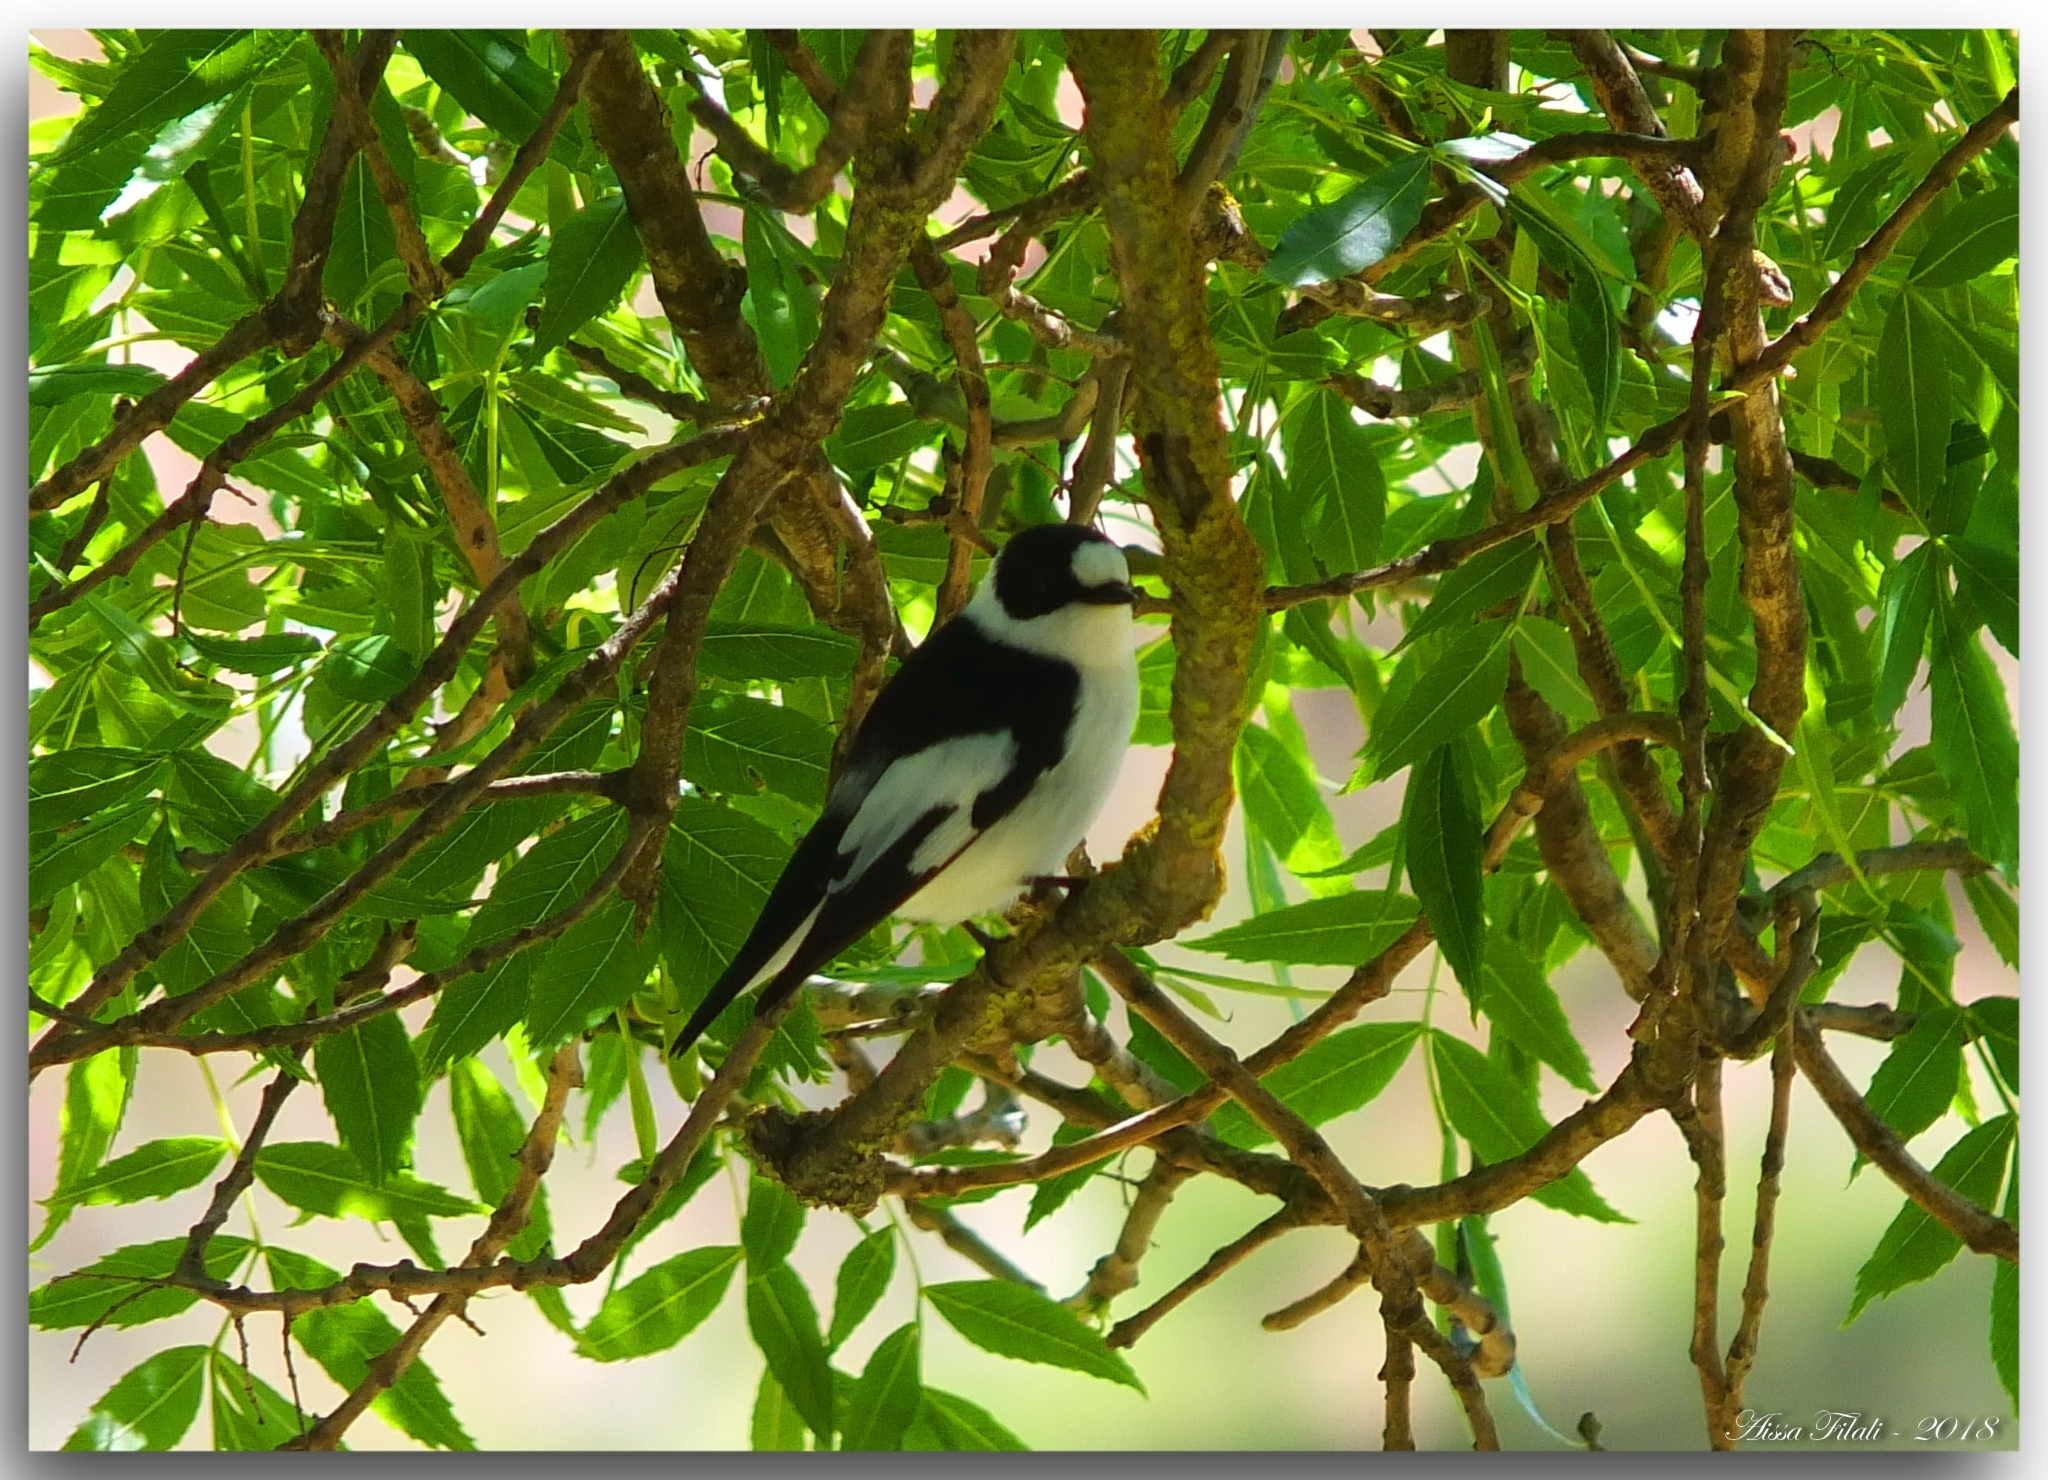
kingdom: Animalia
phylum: Chordata
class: Aves
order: Passeriformes
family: Muscicapidae
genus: Ficedula
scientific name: Ficedula albicollis
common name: Collared flycatcher
